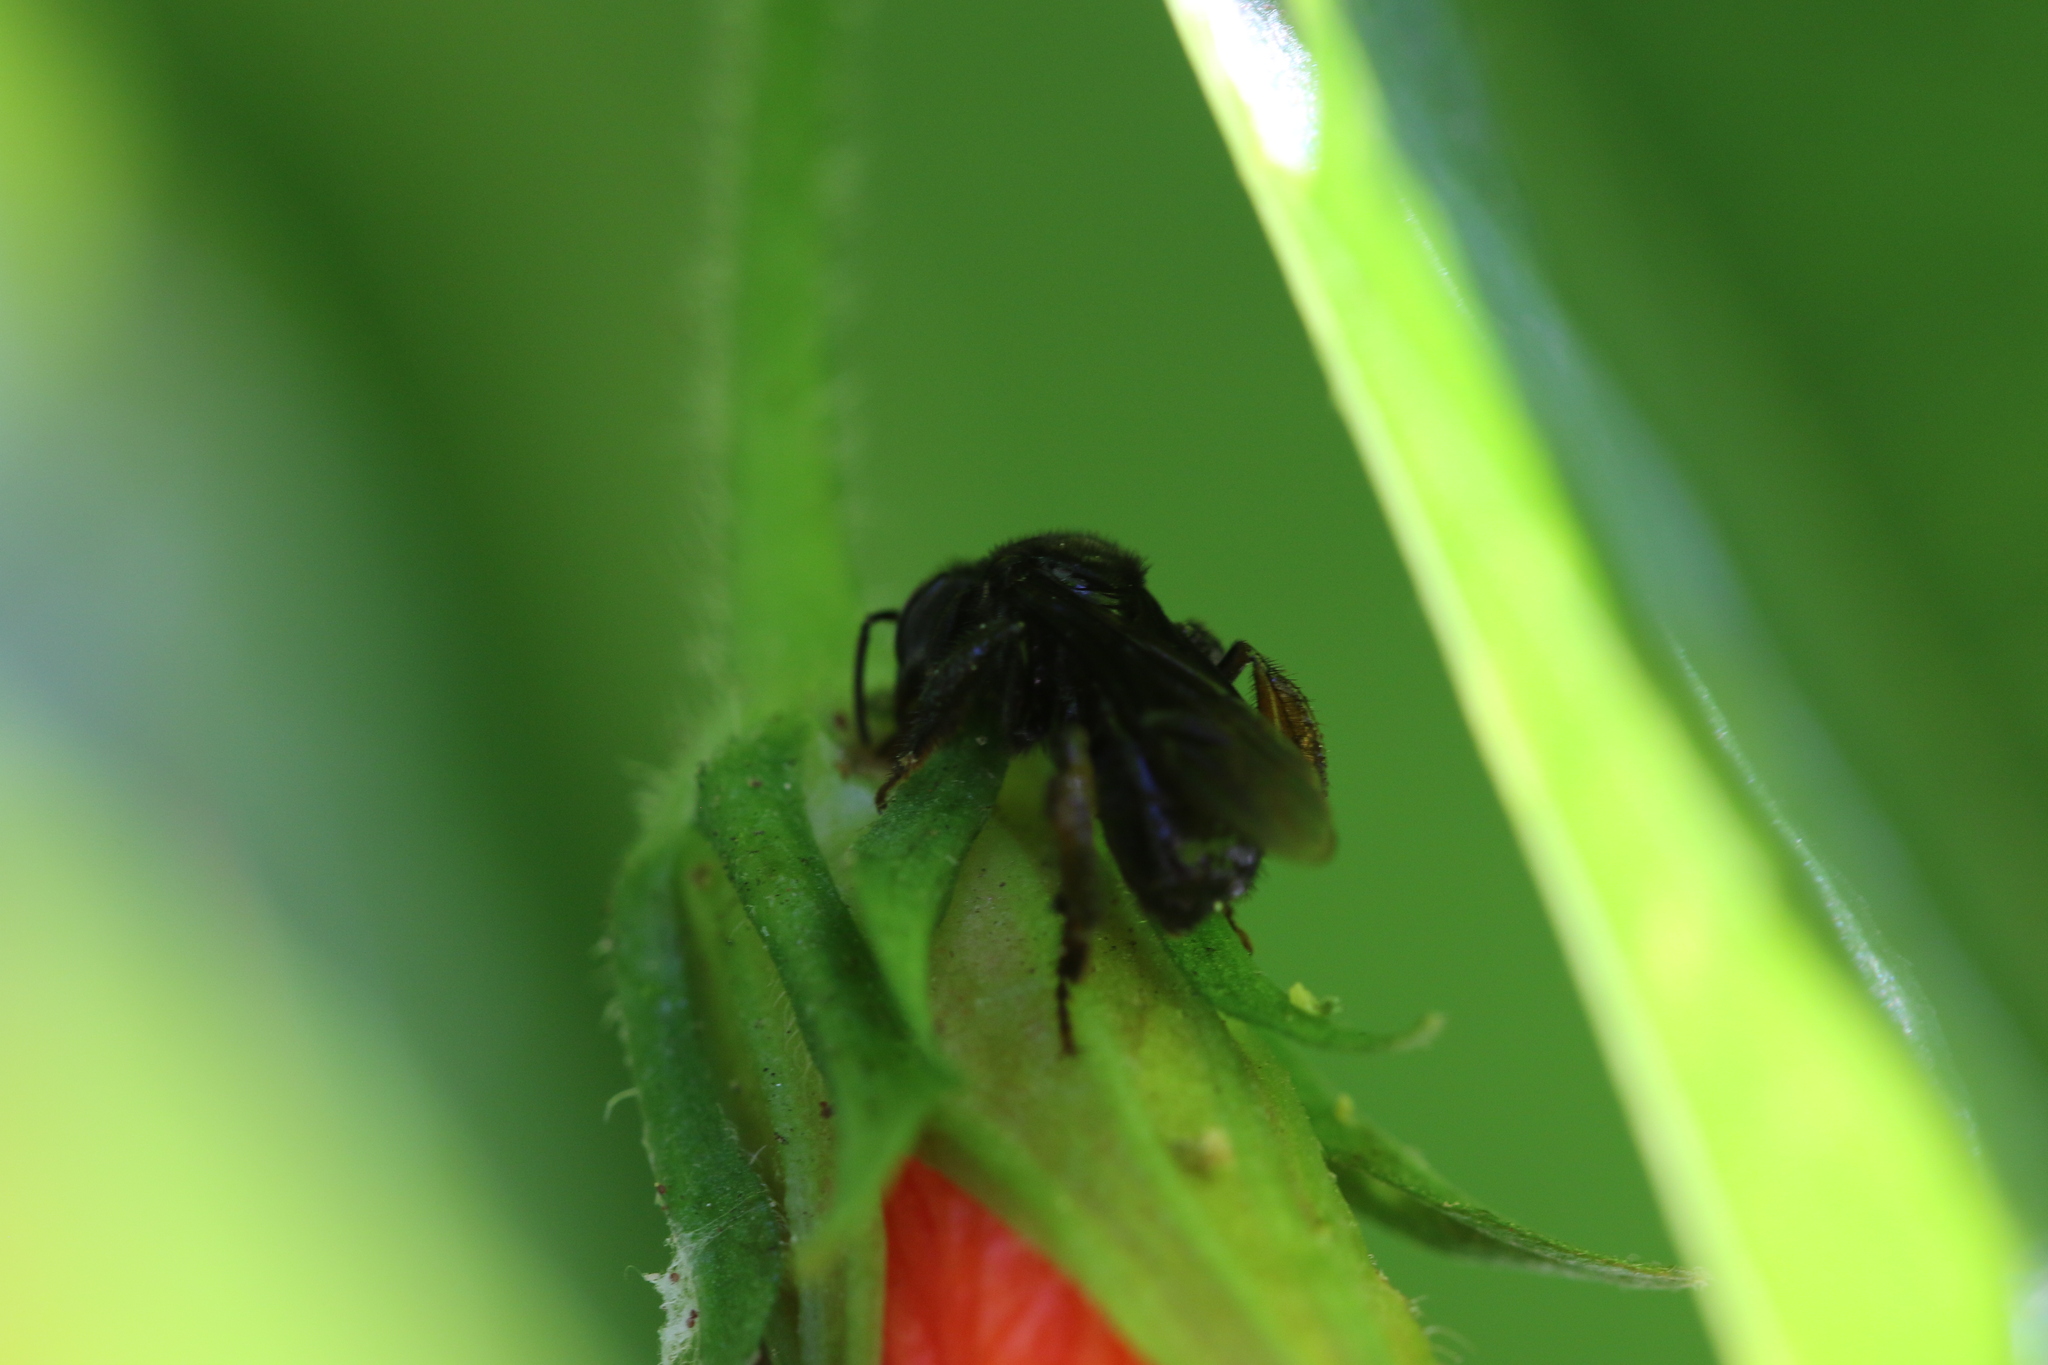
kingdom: Animalia
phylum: Arthropoda
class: Insecta
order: Hymenoptera
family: Apidae
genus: Trigona
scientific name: Trigona spinipes
